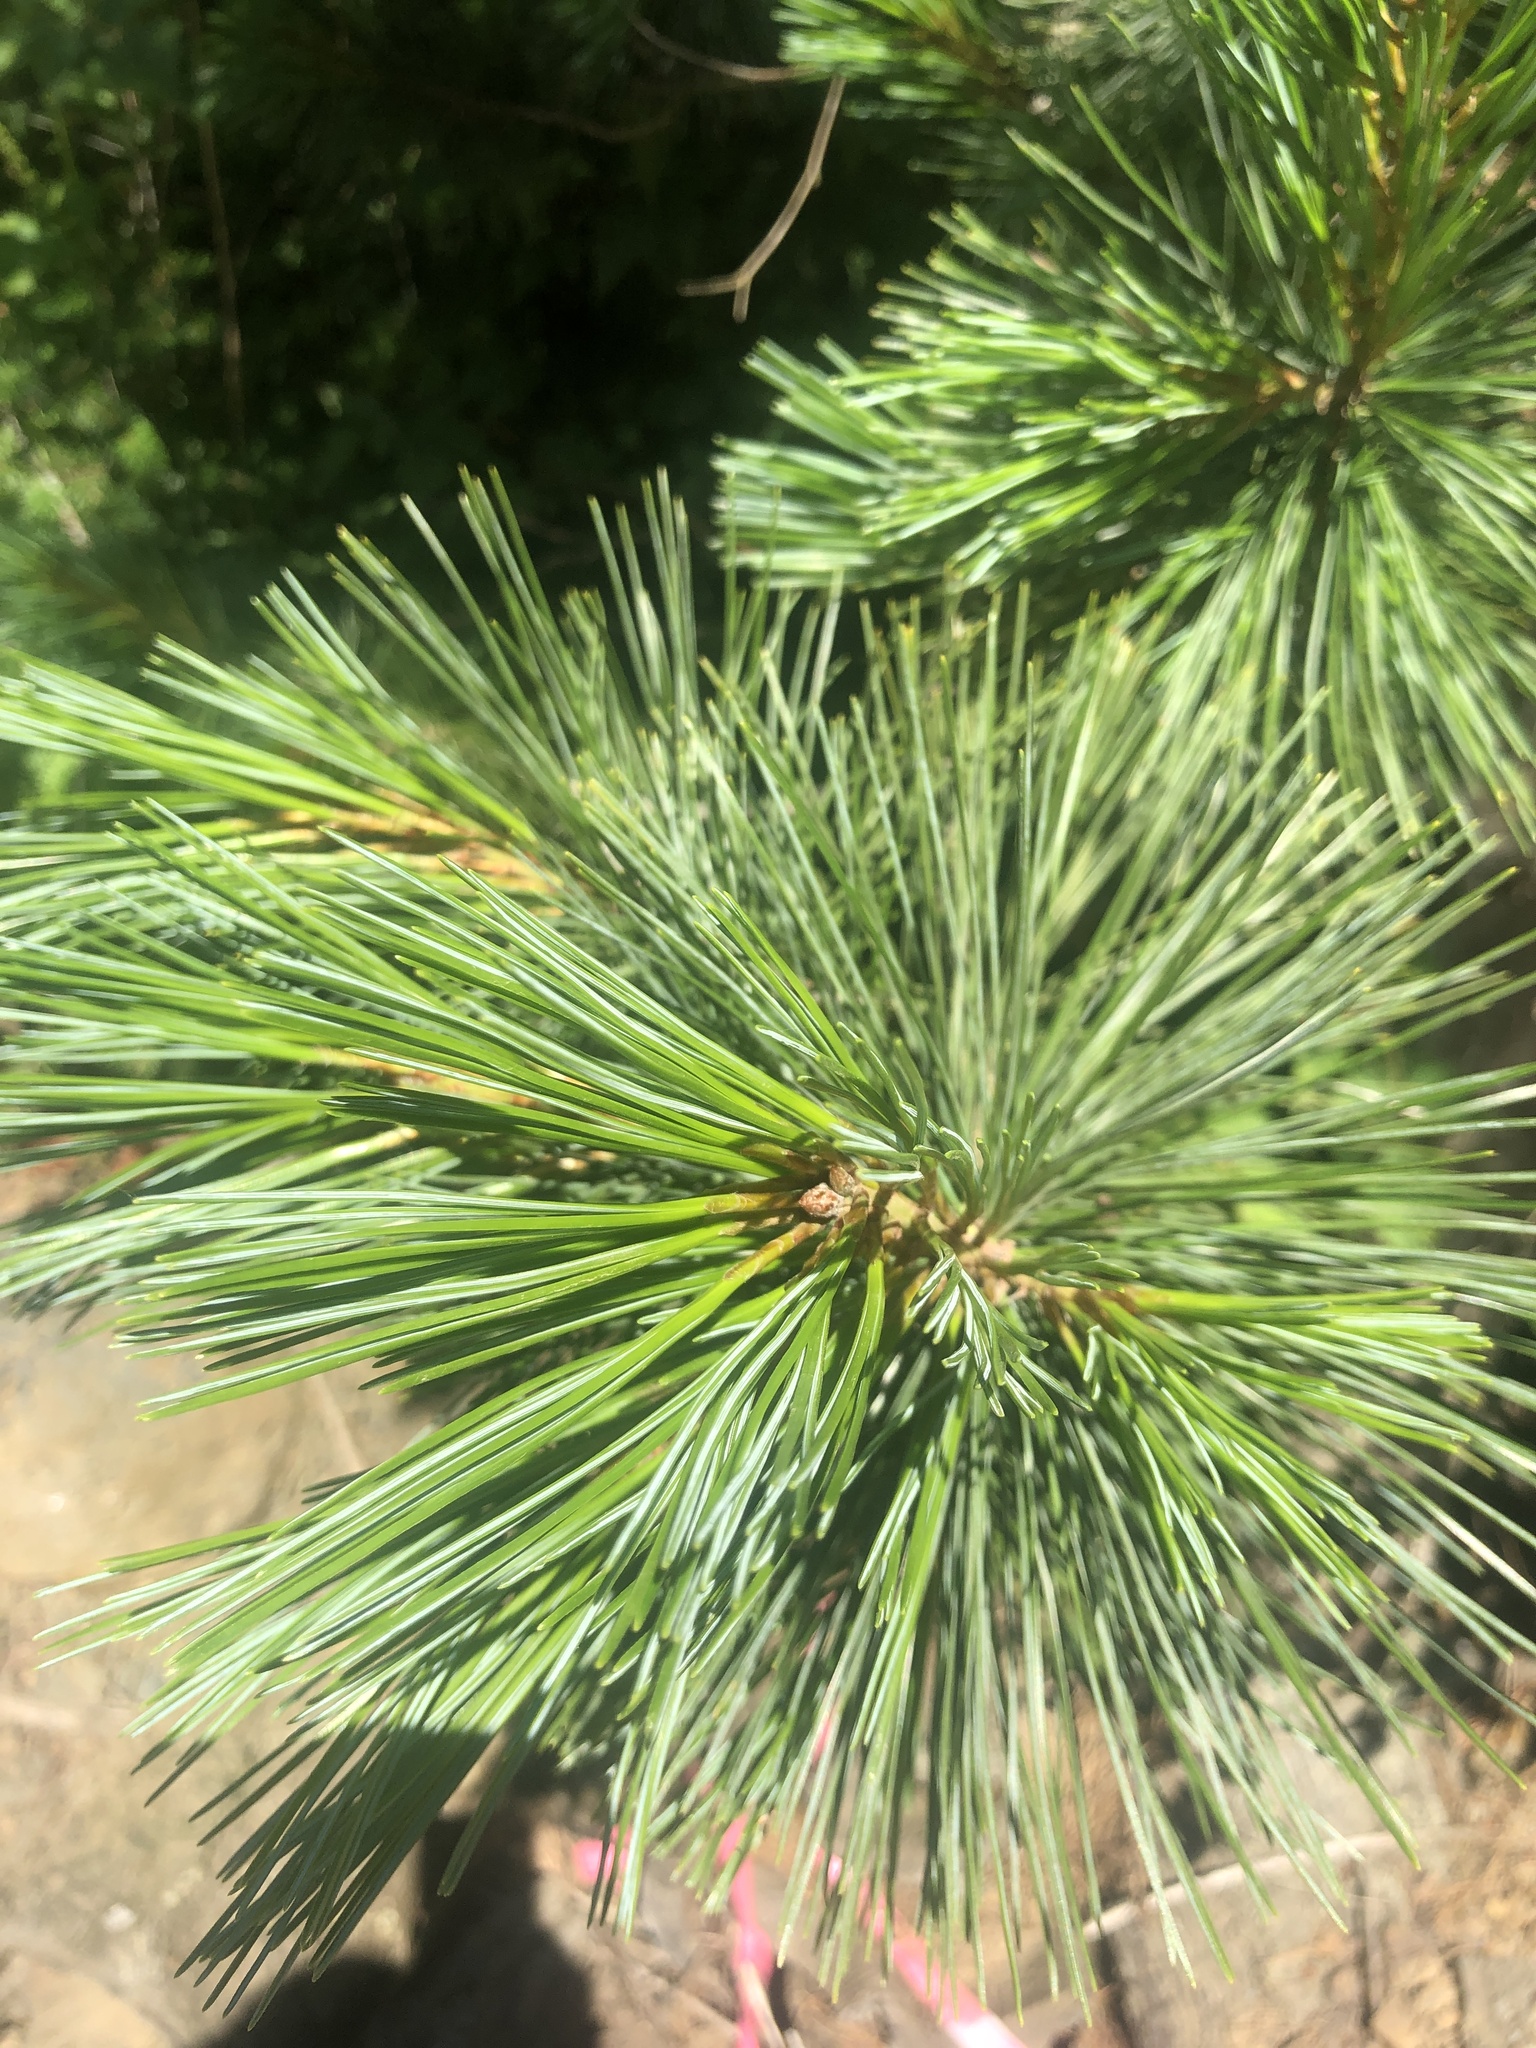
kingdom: Plantae
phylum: Tracheophyta
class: Pinopsida
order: Pinales
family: Pinaceae
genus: Pinus
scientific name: Pinus monticola
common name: Western white pine
